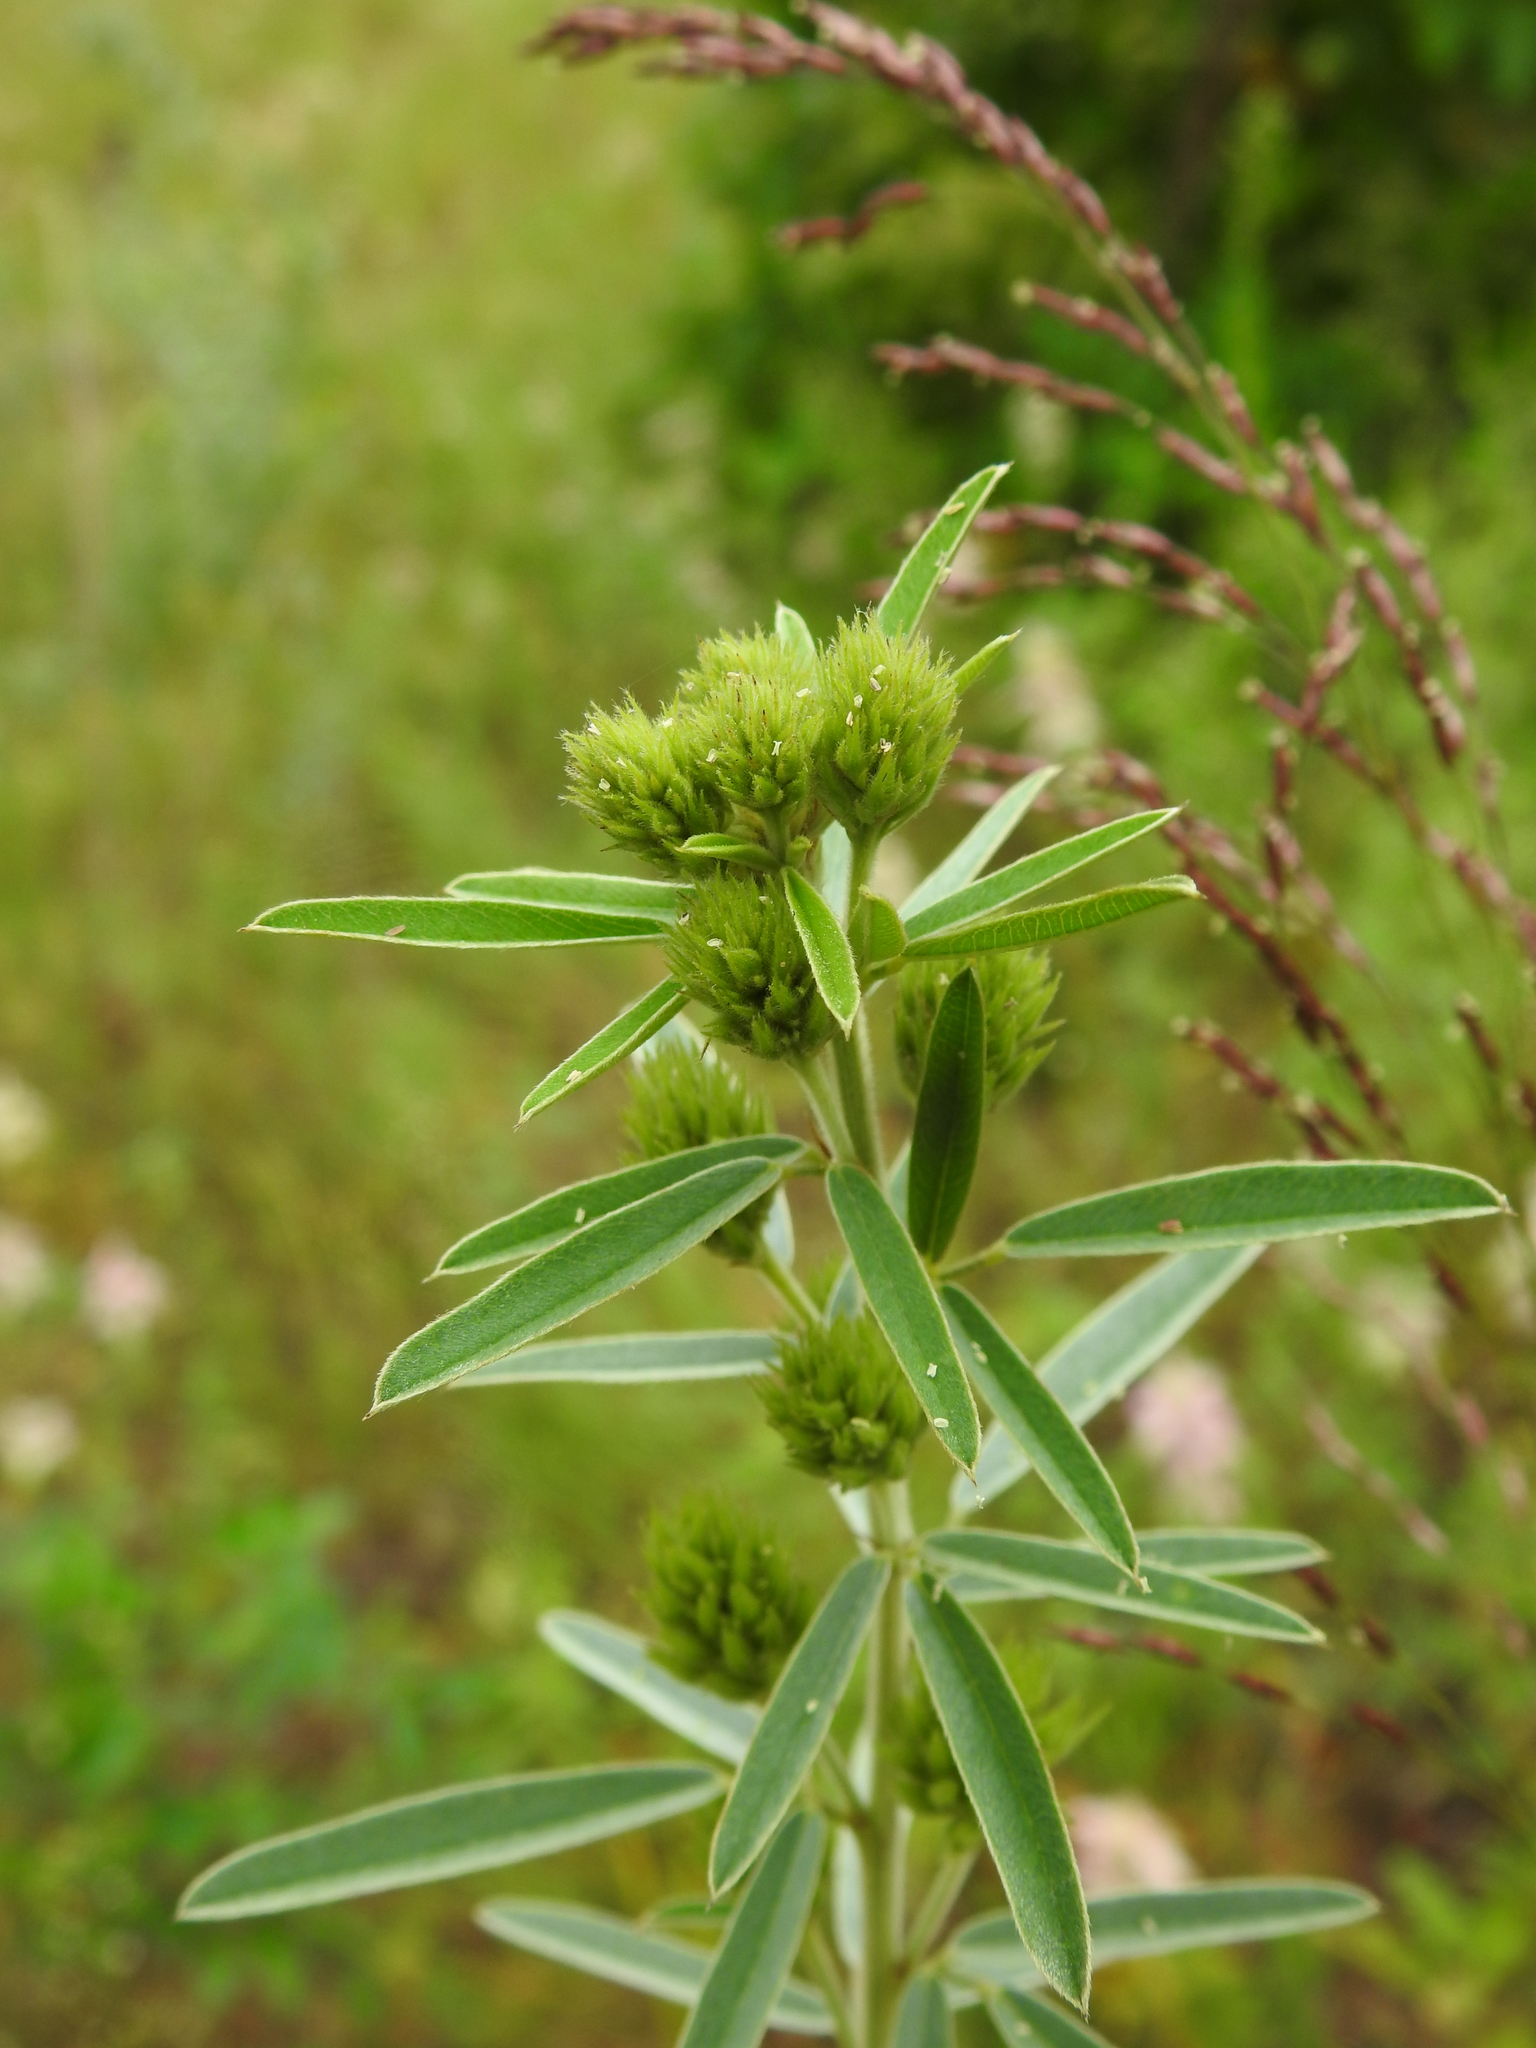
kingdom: Plantae
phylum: Tracheophyta
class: Magnoliopsida
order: Fabales
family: Fabaceae
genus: Lespedeza
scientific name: Lespedeza capitata
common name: Dusty clover
